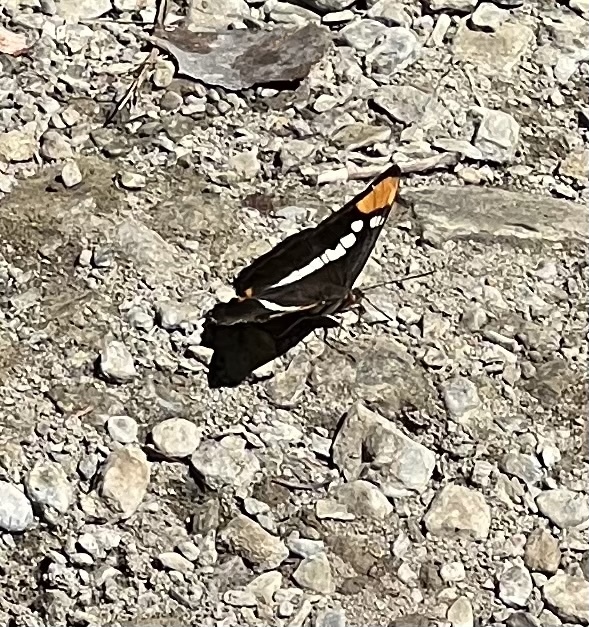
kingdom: Animalia
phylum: Arthropoda
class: Insecta
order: Lepidoptera
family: Nymphalidae
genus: Limenitis
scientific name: Limenitis bredowii
